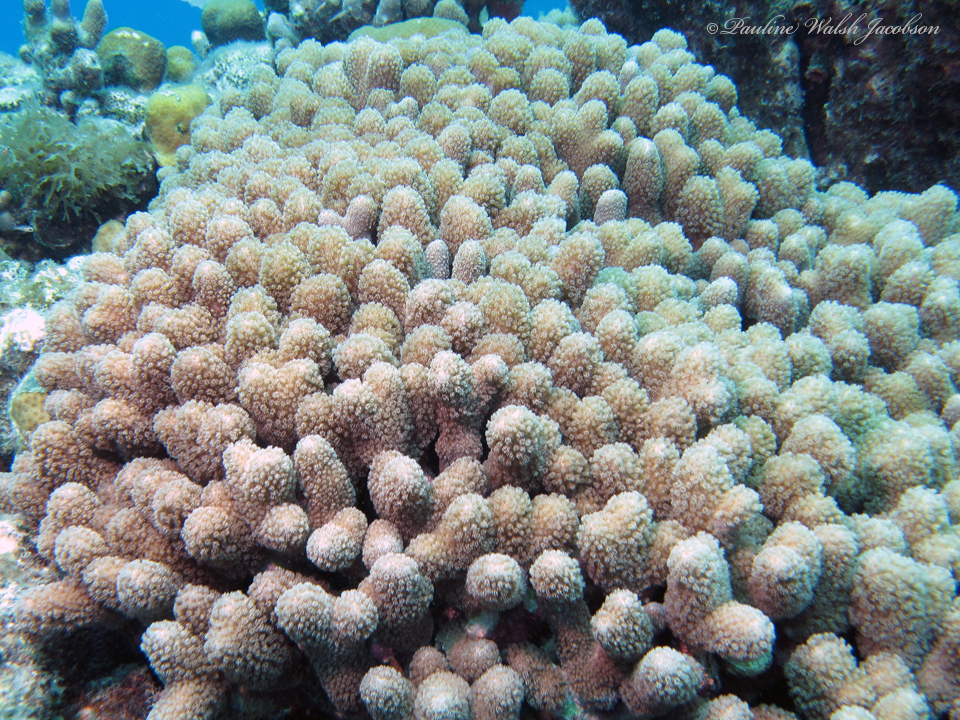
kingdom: Animalia
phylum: Cnidaria
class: Anthozoa
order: Scleractinia
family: Poritidae
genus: Porites
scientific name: Porites porites
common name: Finger coral
